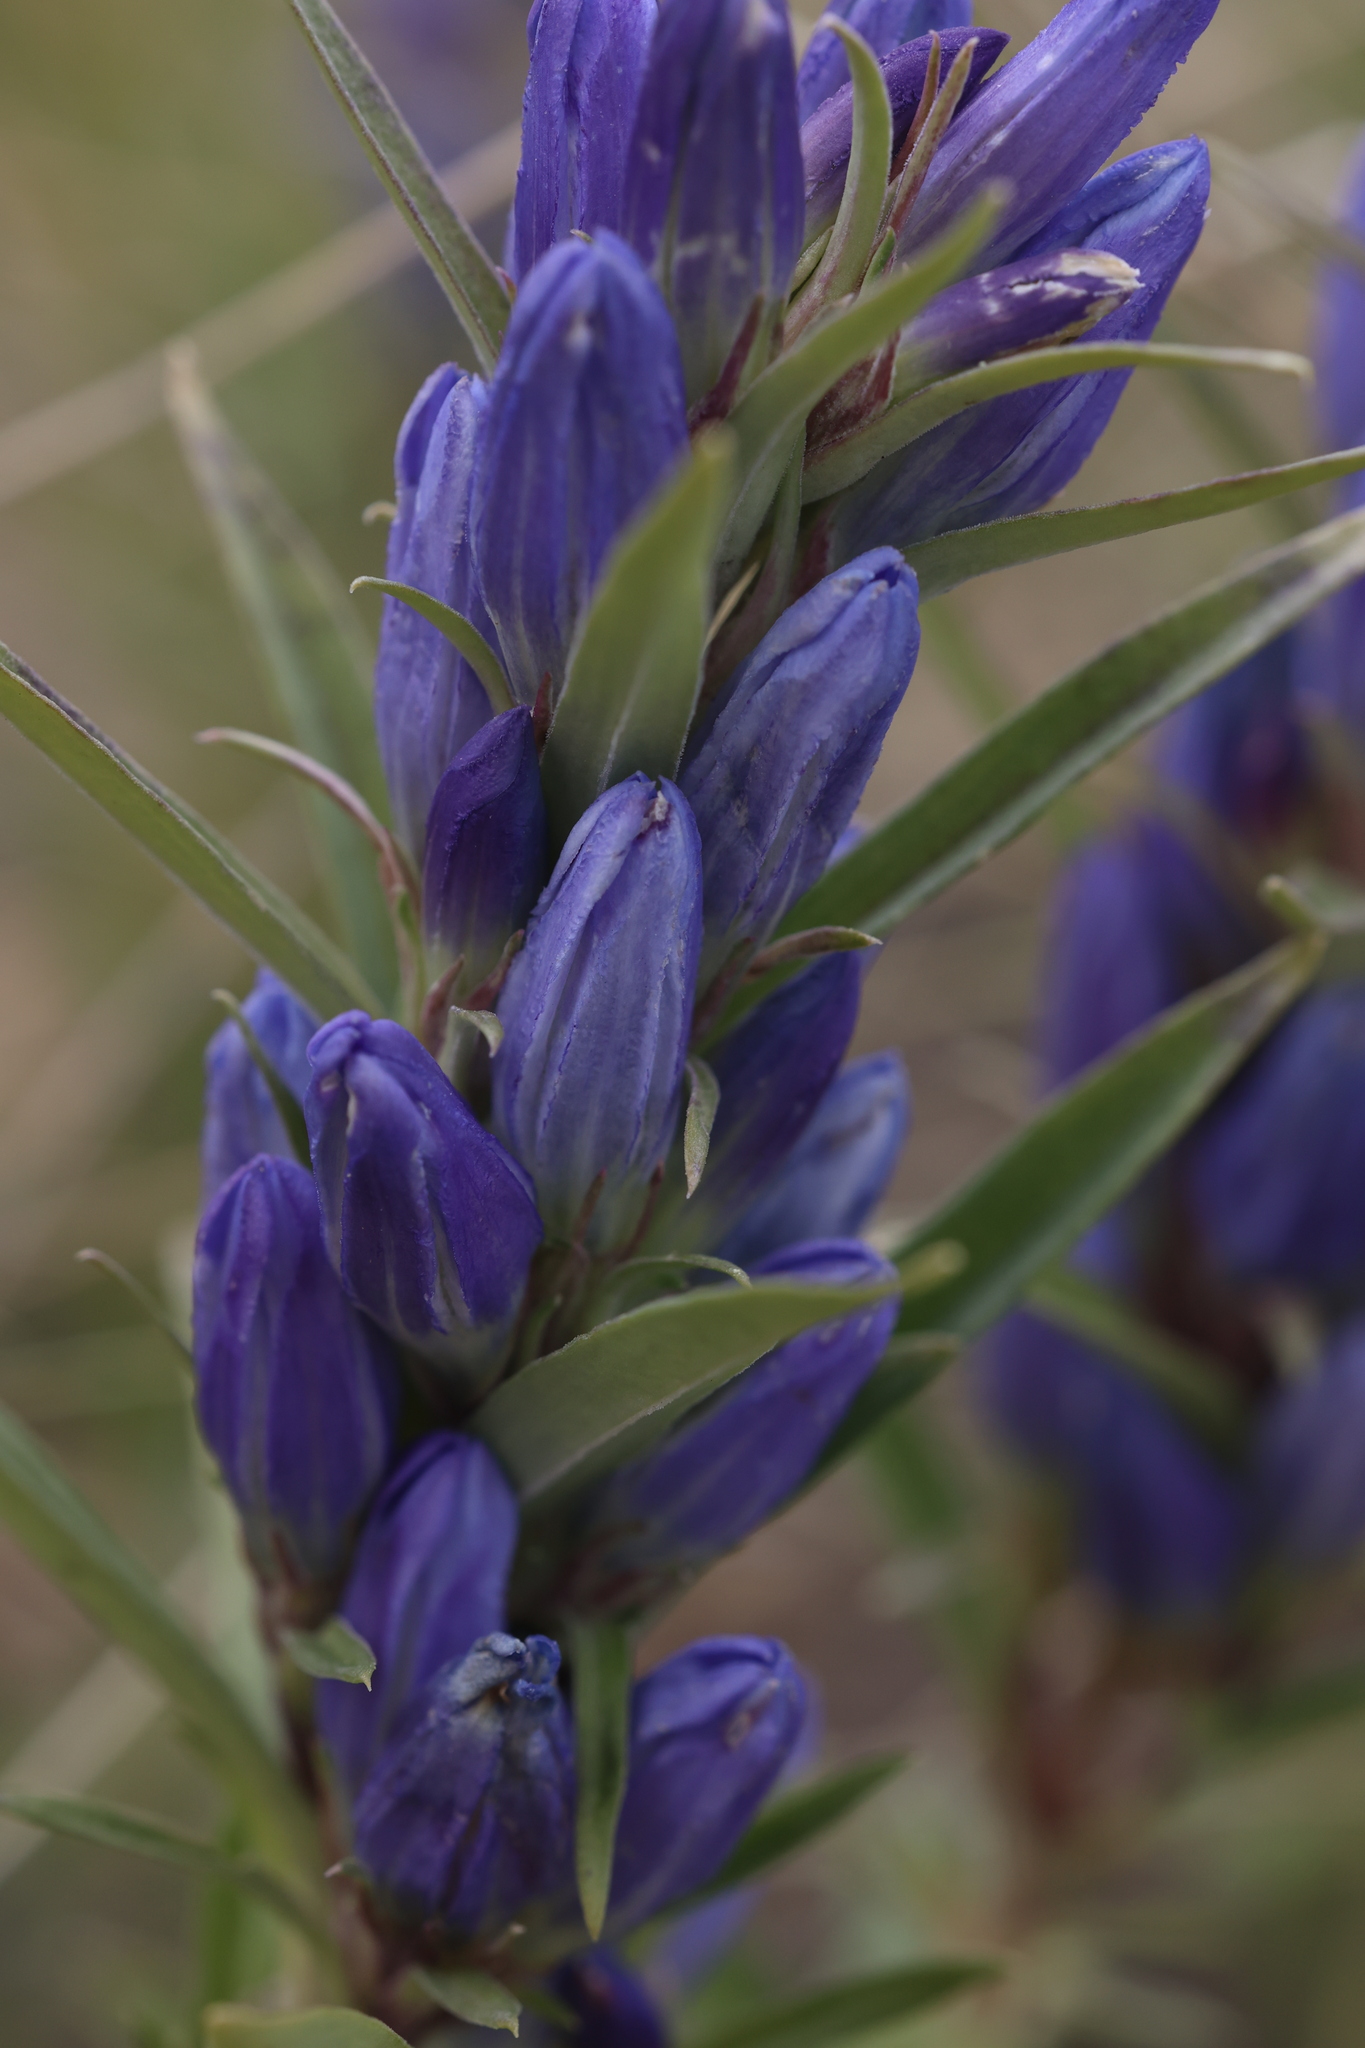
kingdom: Plantae
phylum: Tracheophyta
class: Magnoliopsida
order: Gentianales
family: Gentianaceae
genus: Gentiana
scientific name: Gentiana affinis
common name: Rocky mountain gentian
